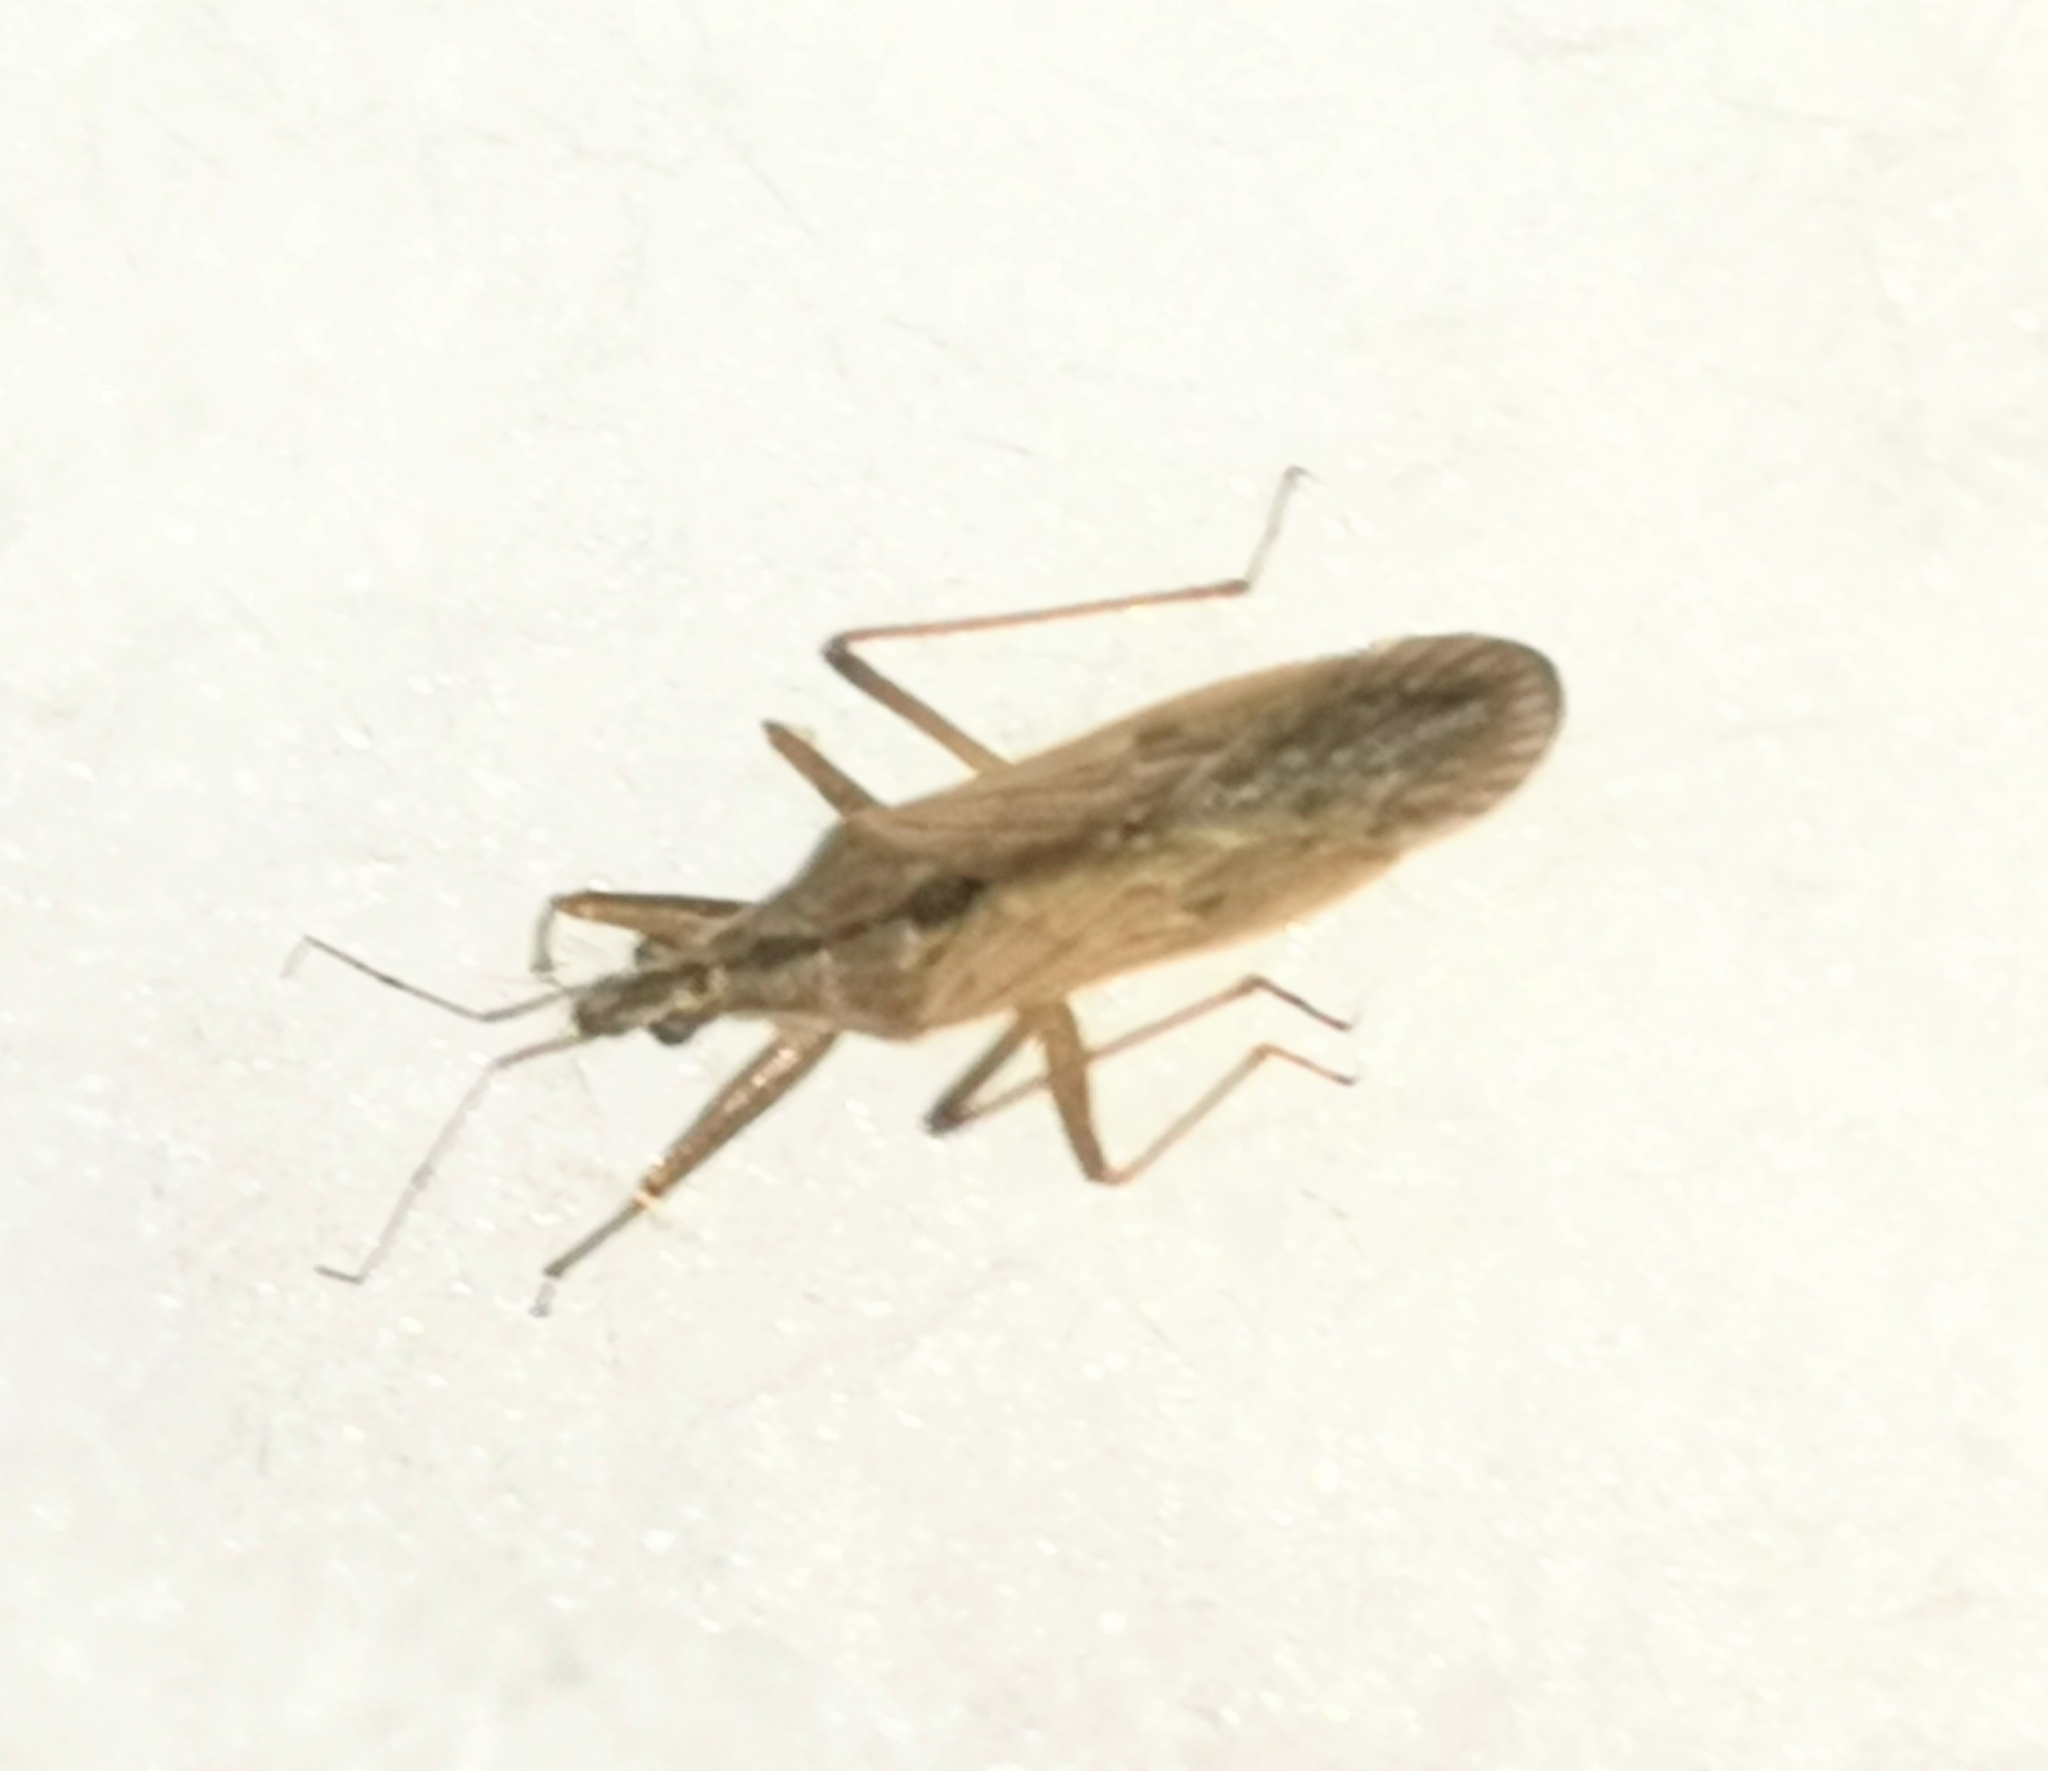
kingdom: Animalia
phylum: Arthropoda
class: Insecta
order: Hemiptera
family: Nabidae
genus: Nabis
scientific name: Nabis ferus
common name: Field damsel bug
